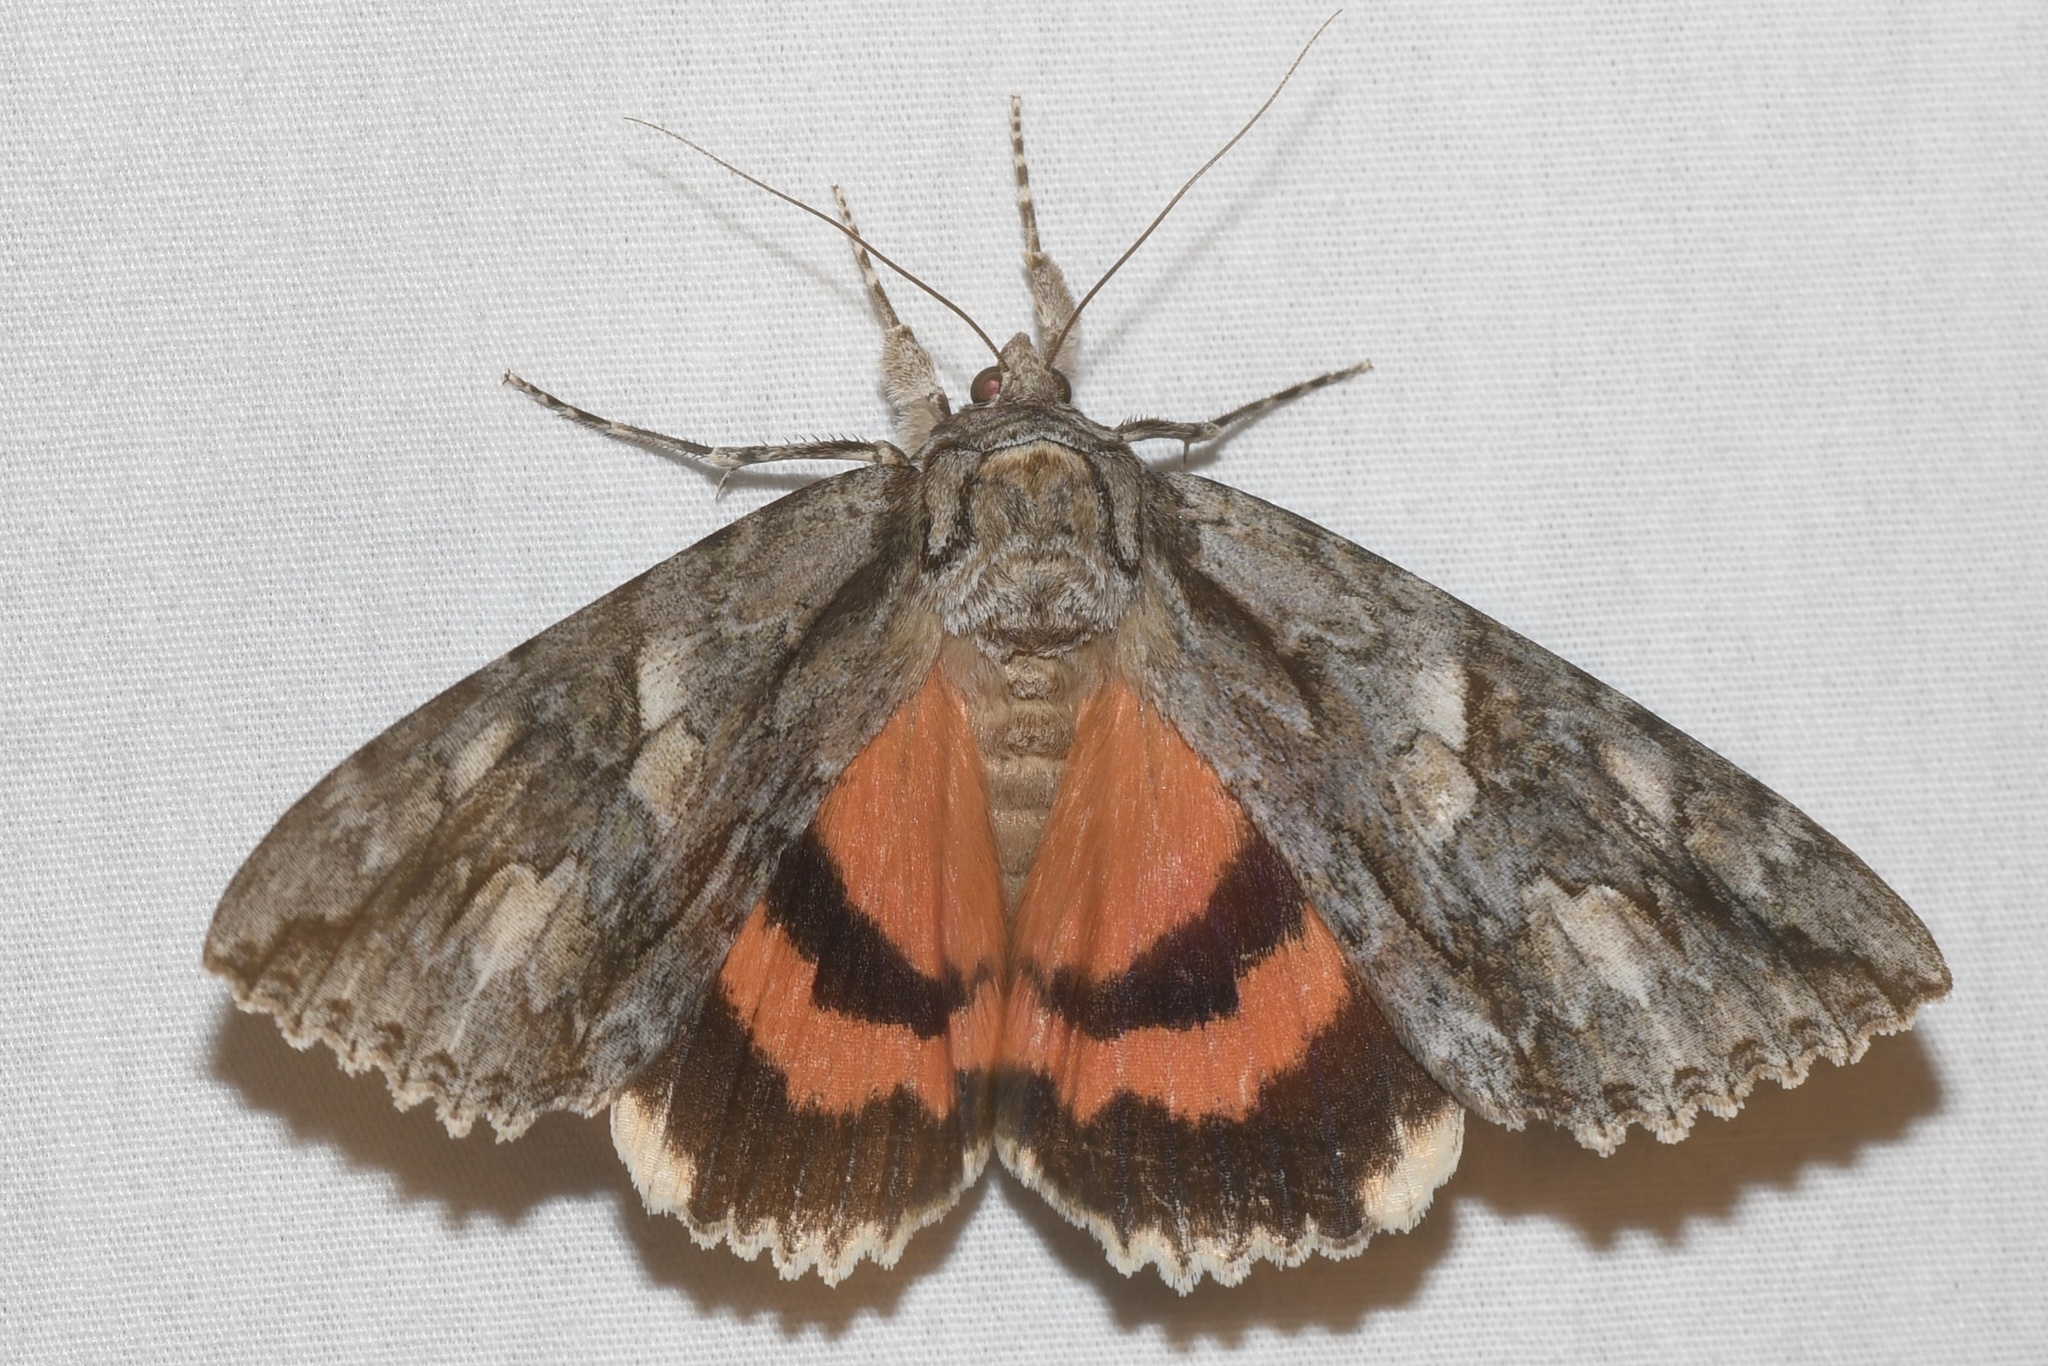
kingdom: Animalia
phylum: Arthropoda
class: Insecta
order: Lepidoptera
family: Erebidae
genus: Catocala
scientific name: Catocala parta
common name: Mother underwing
